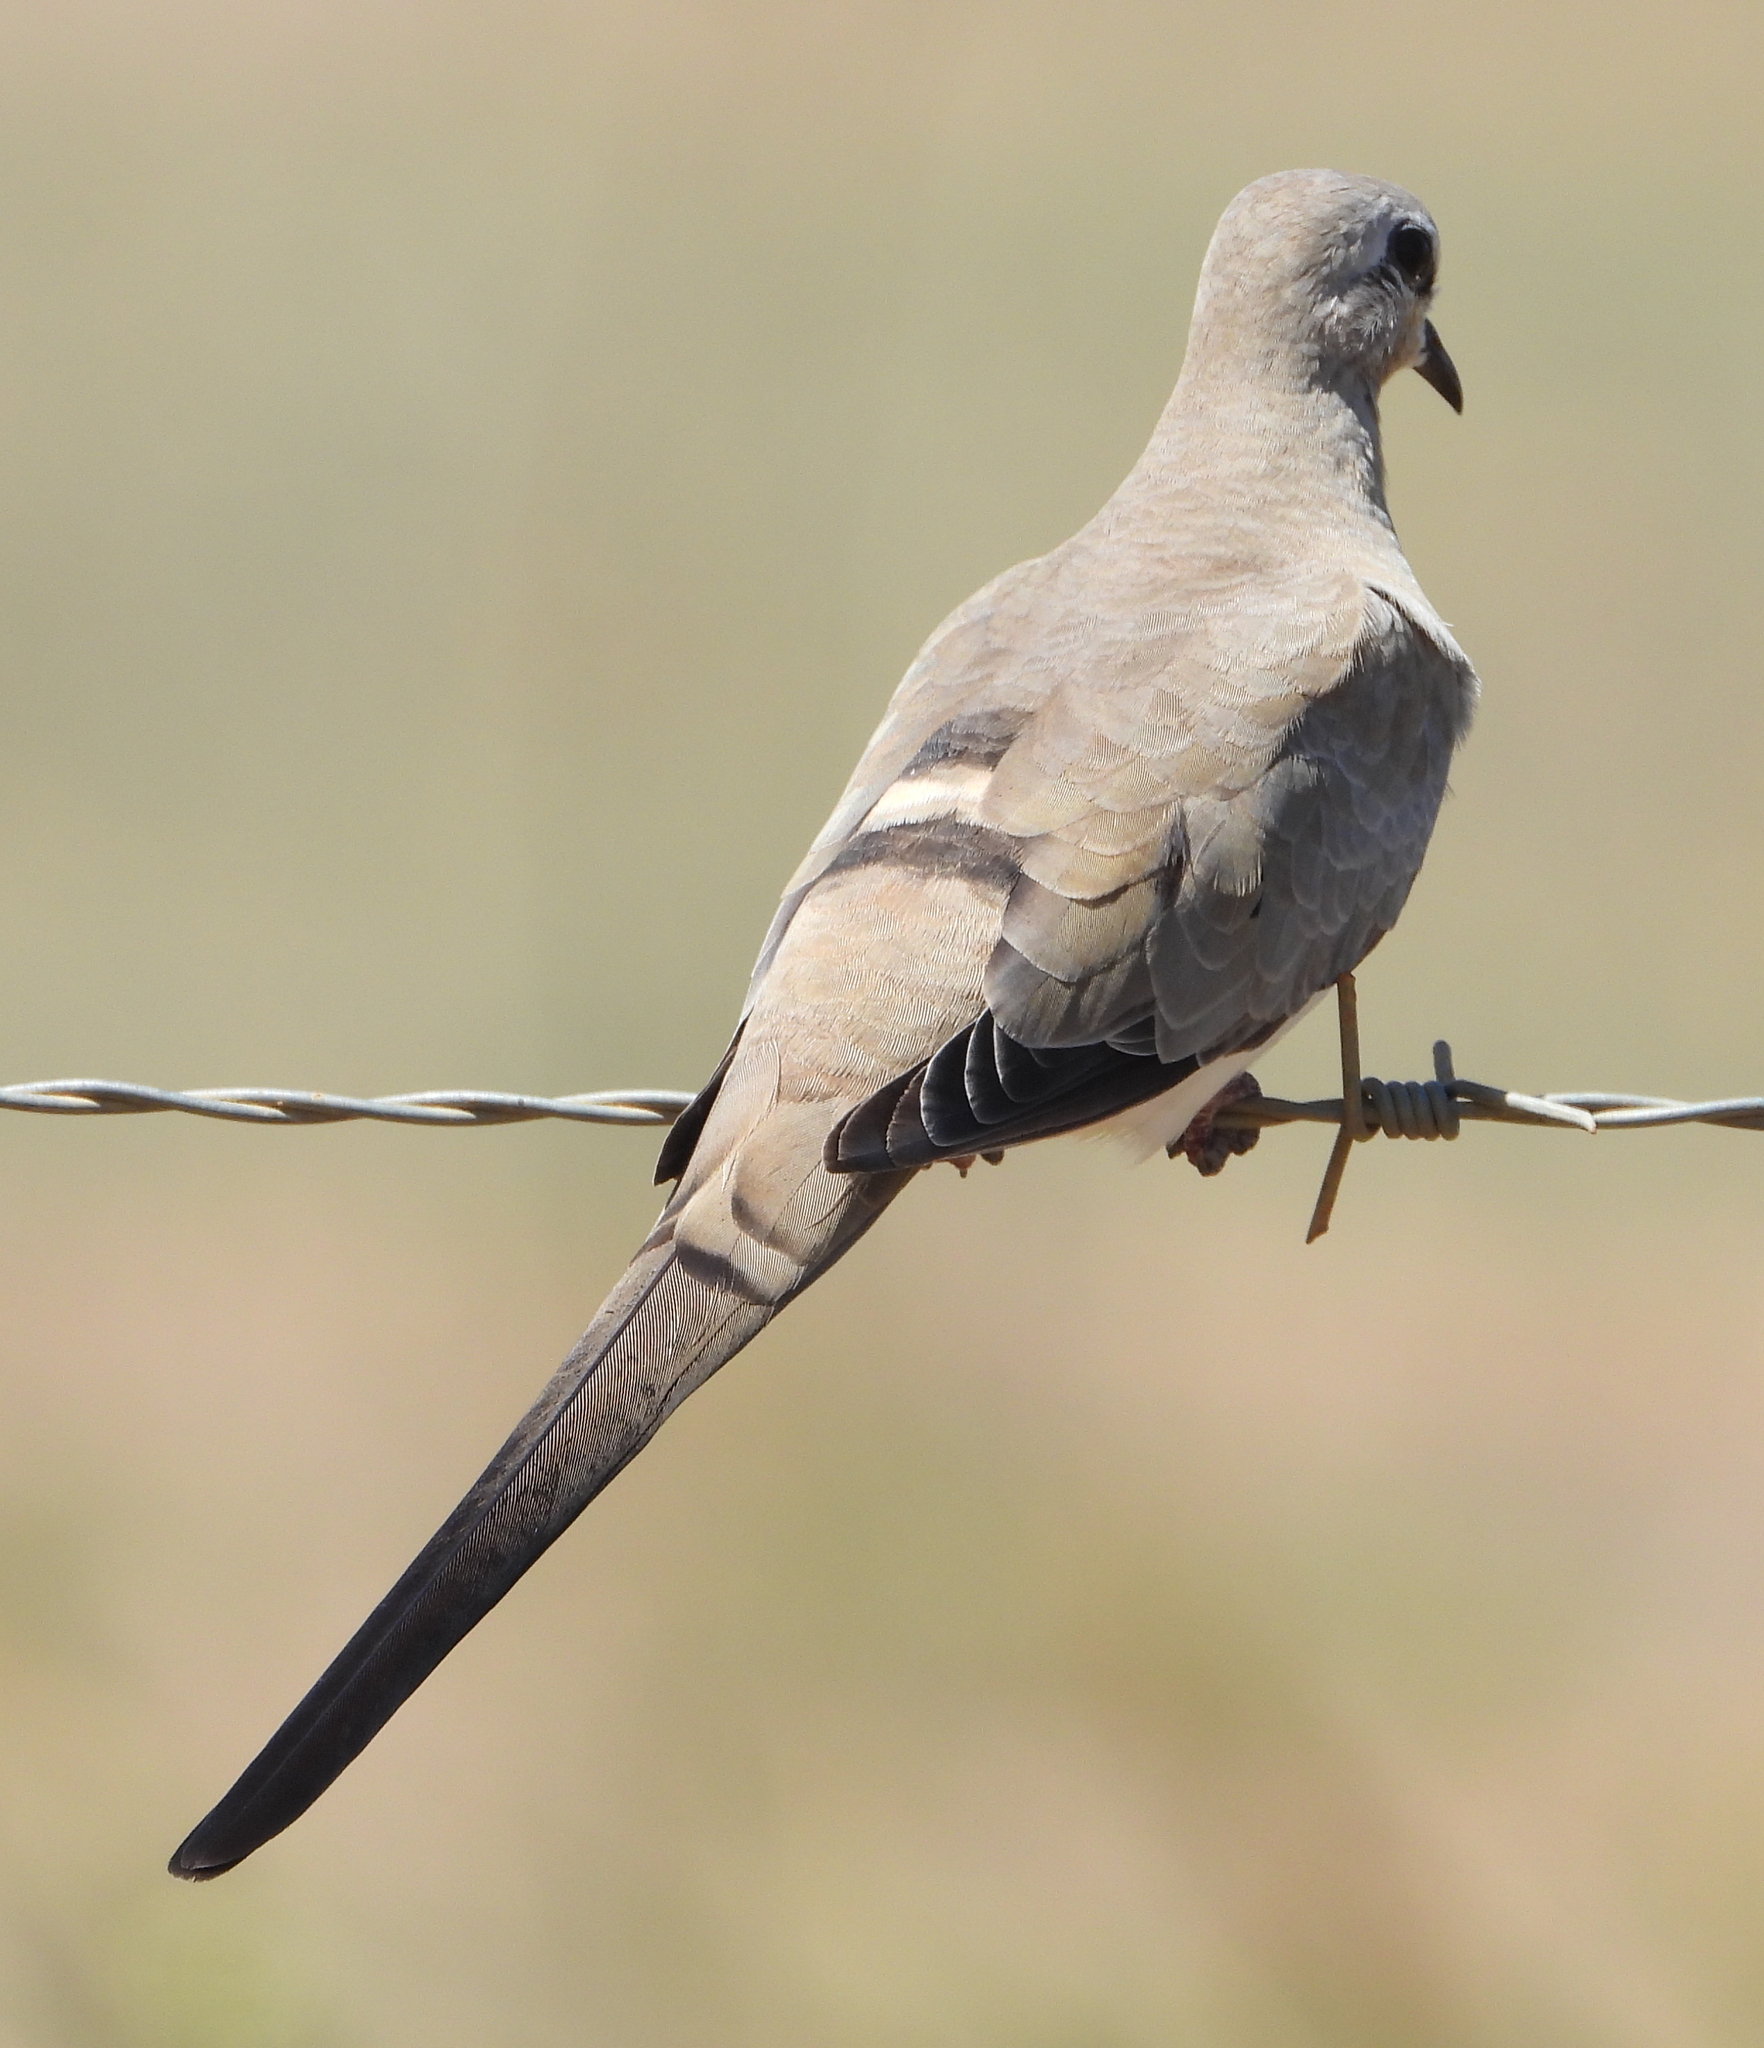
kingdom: Animalia
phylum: Chordata
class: Aves
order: Columbiformes
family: Columbidae
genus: Oena
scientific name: Oena capensis
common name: Namaqua dove
